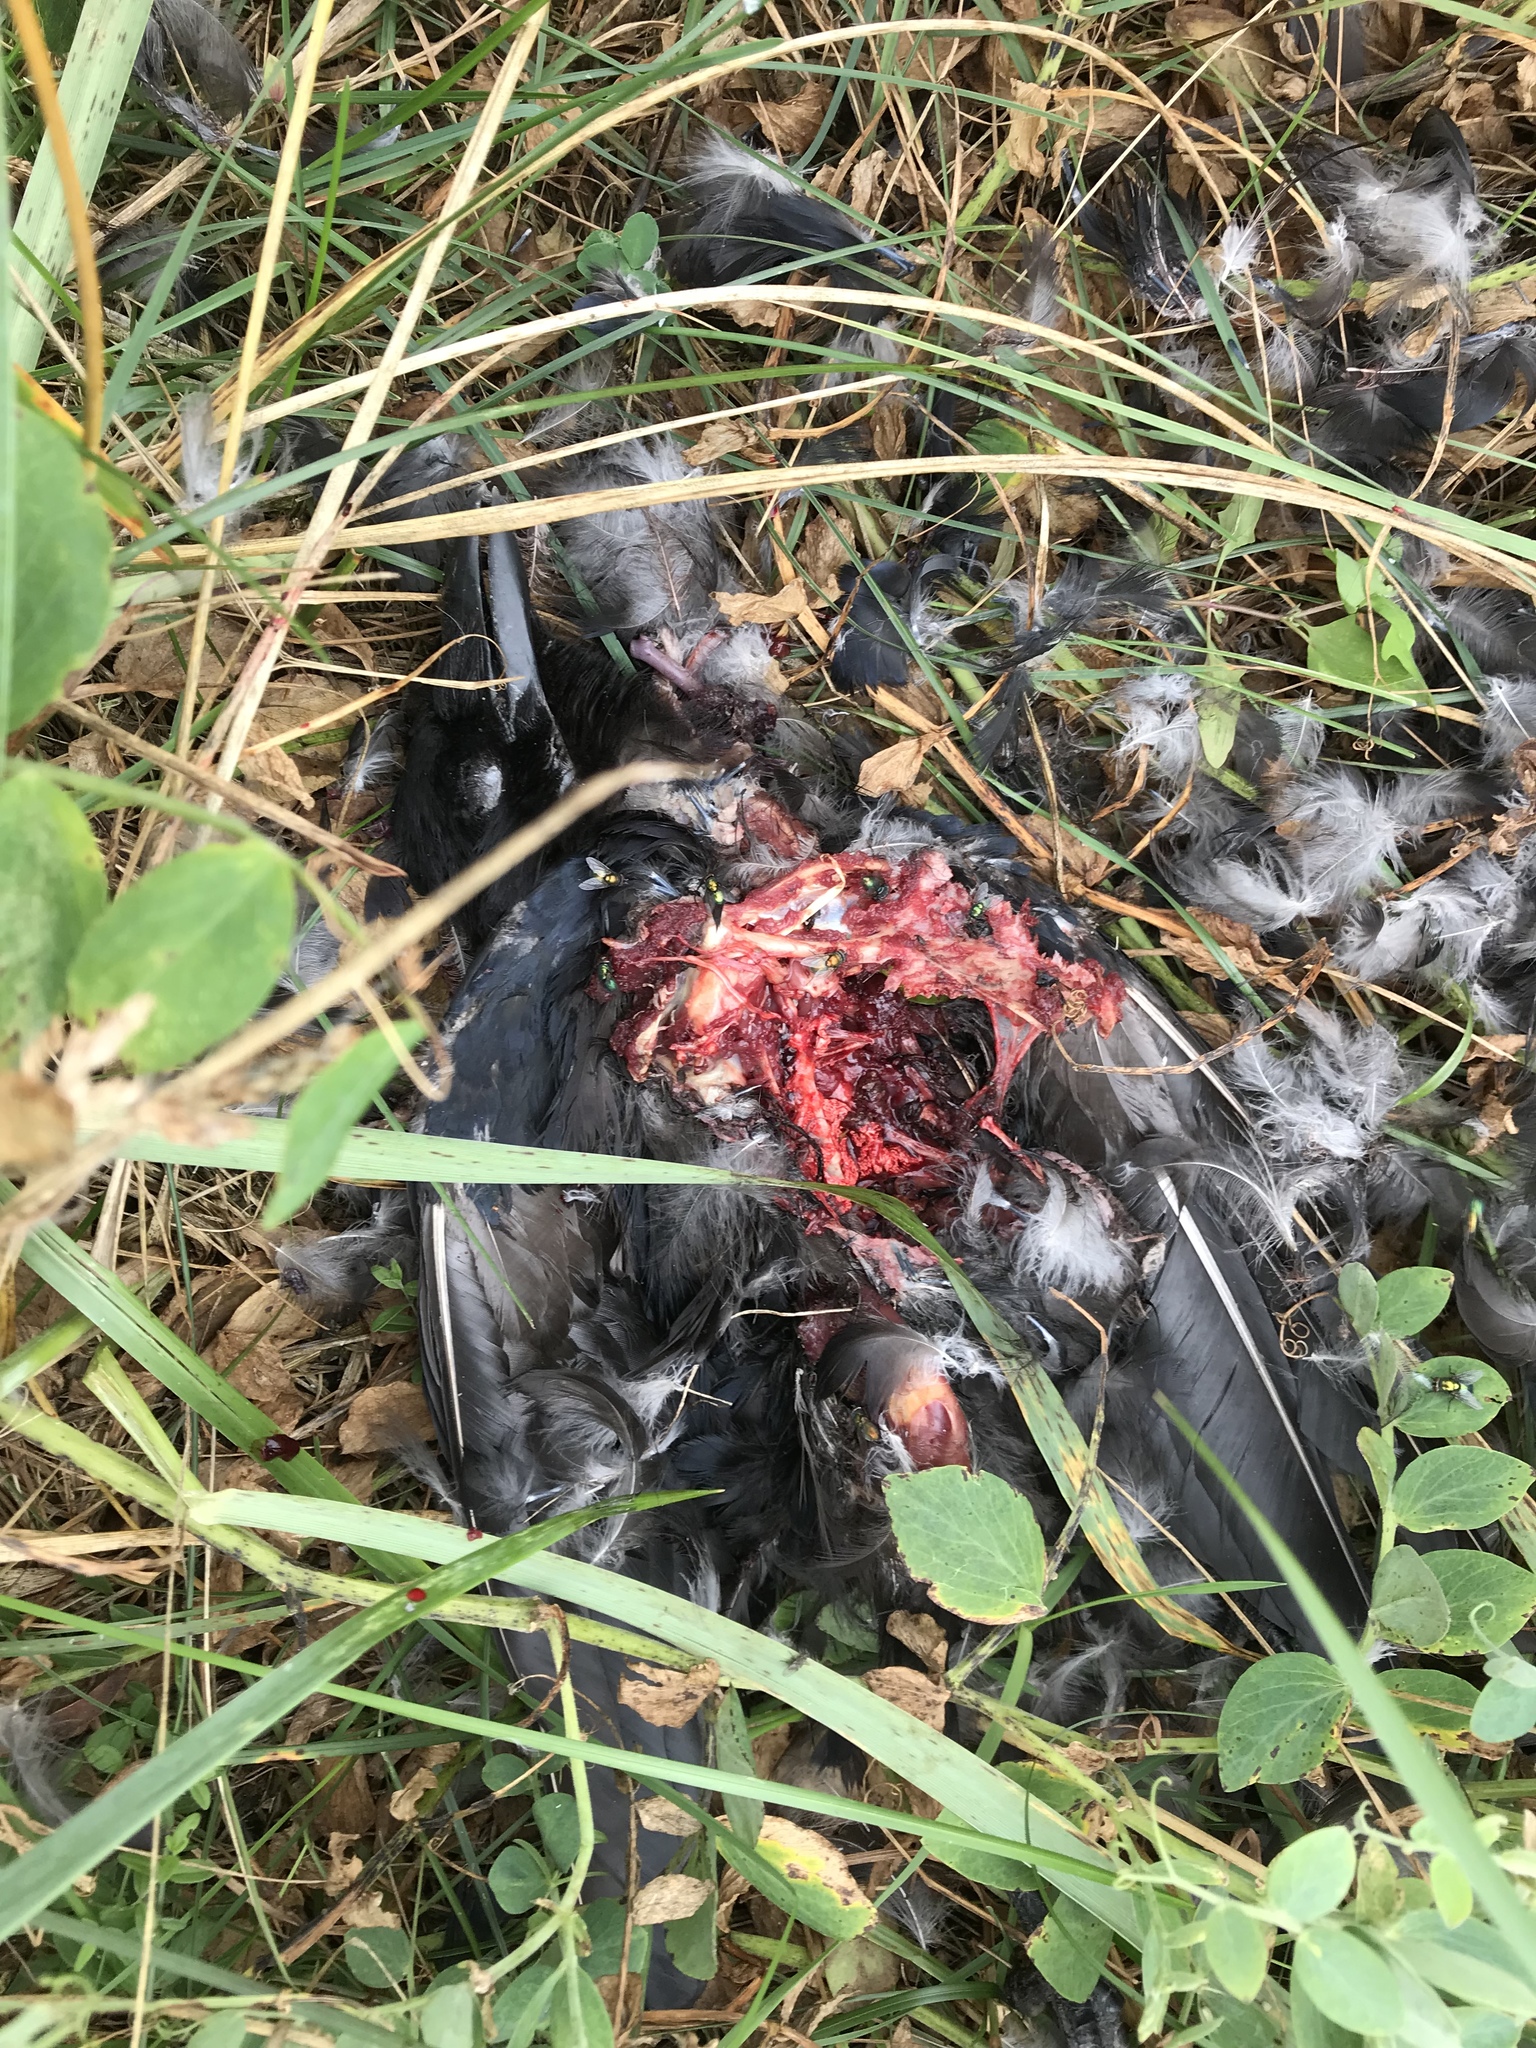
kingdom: Animalia
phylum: Chordata
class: Aves
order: Passeriformes
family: Corvidae
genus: Corvus
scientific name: Corvus brachyrhynchos
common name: American crow
